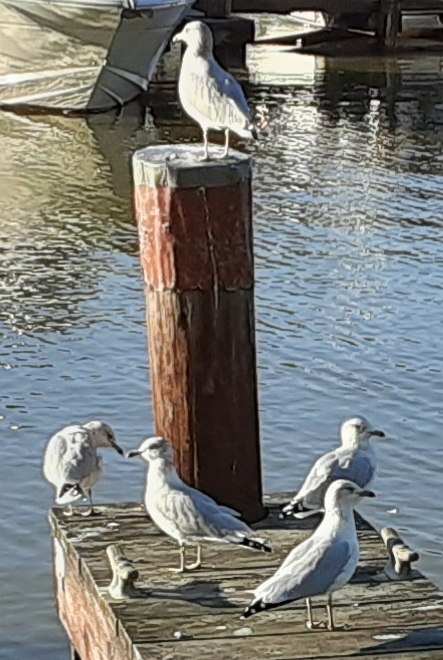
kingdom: Animalia
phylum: Chordata
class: Aves
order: Charadriiformes
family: Laridae
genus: Larus
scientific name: Larus delawarensis
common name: Ring-billed gull
